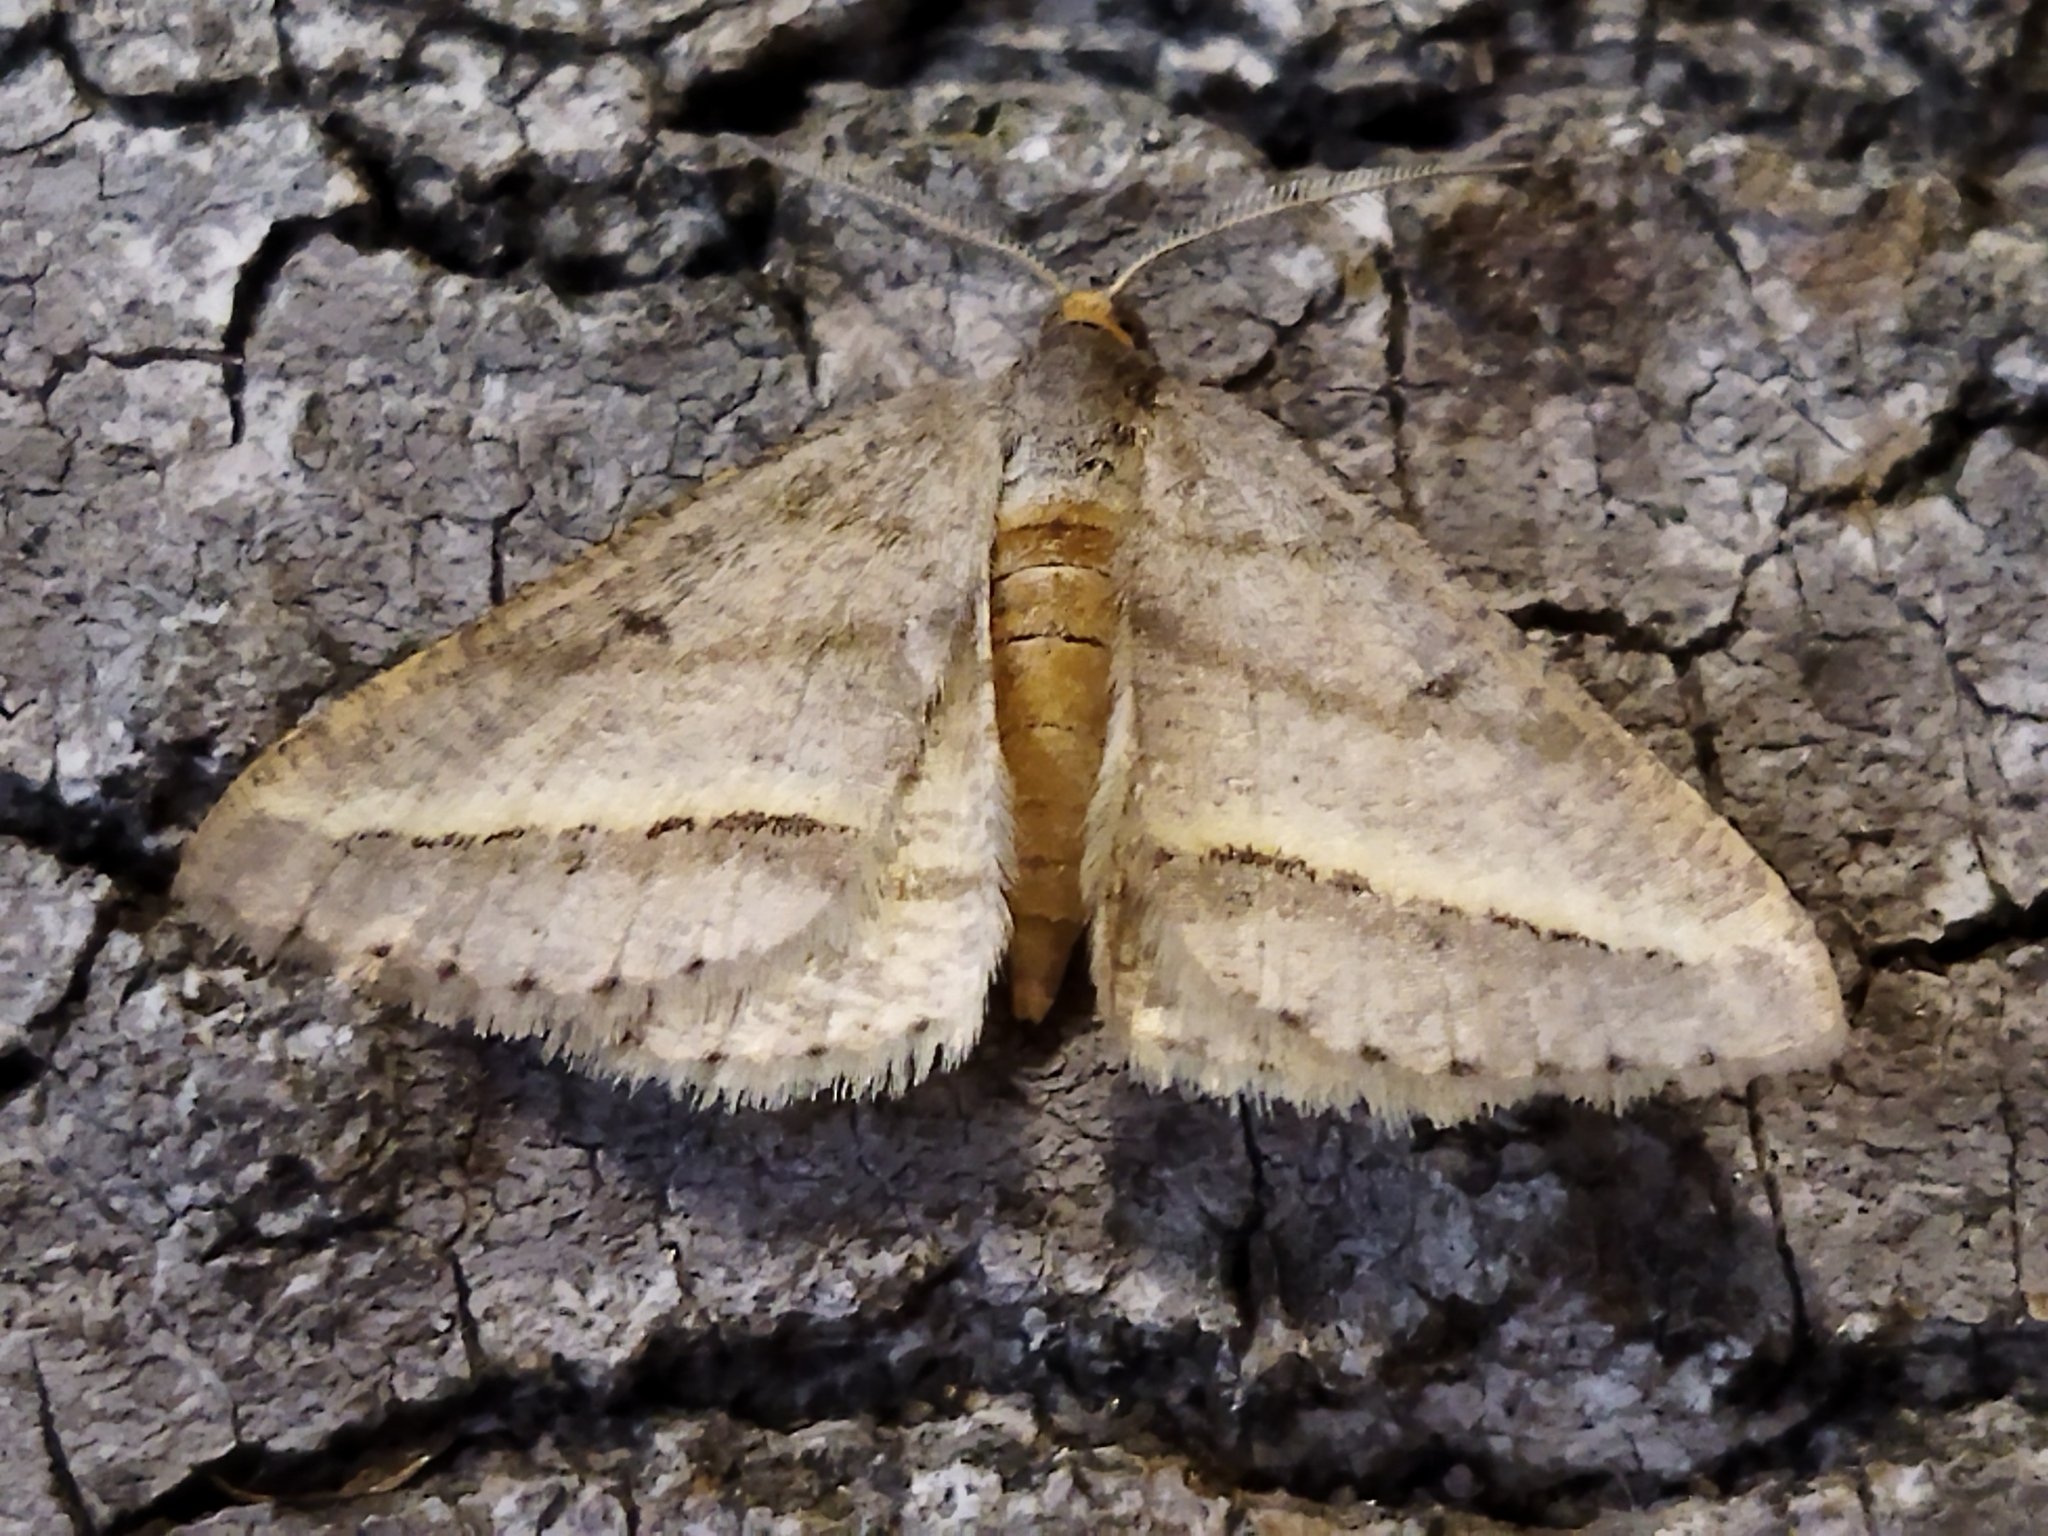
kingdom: Animalia
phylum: Arthropoda
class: Insecta
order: Lepidoptera
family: Geometridae
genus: Tephrina
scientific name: Tephrina arenacearia
